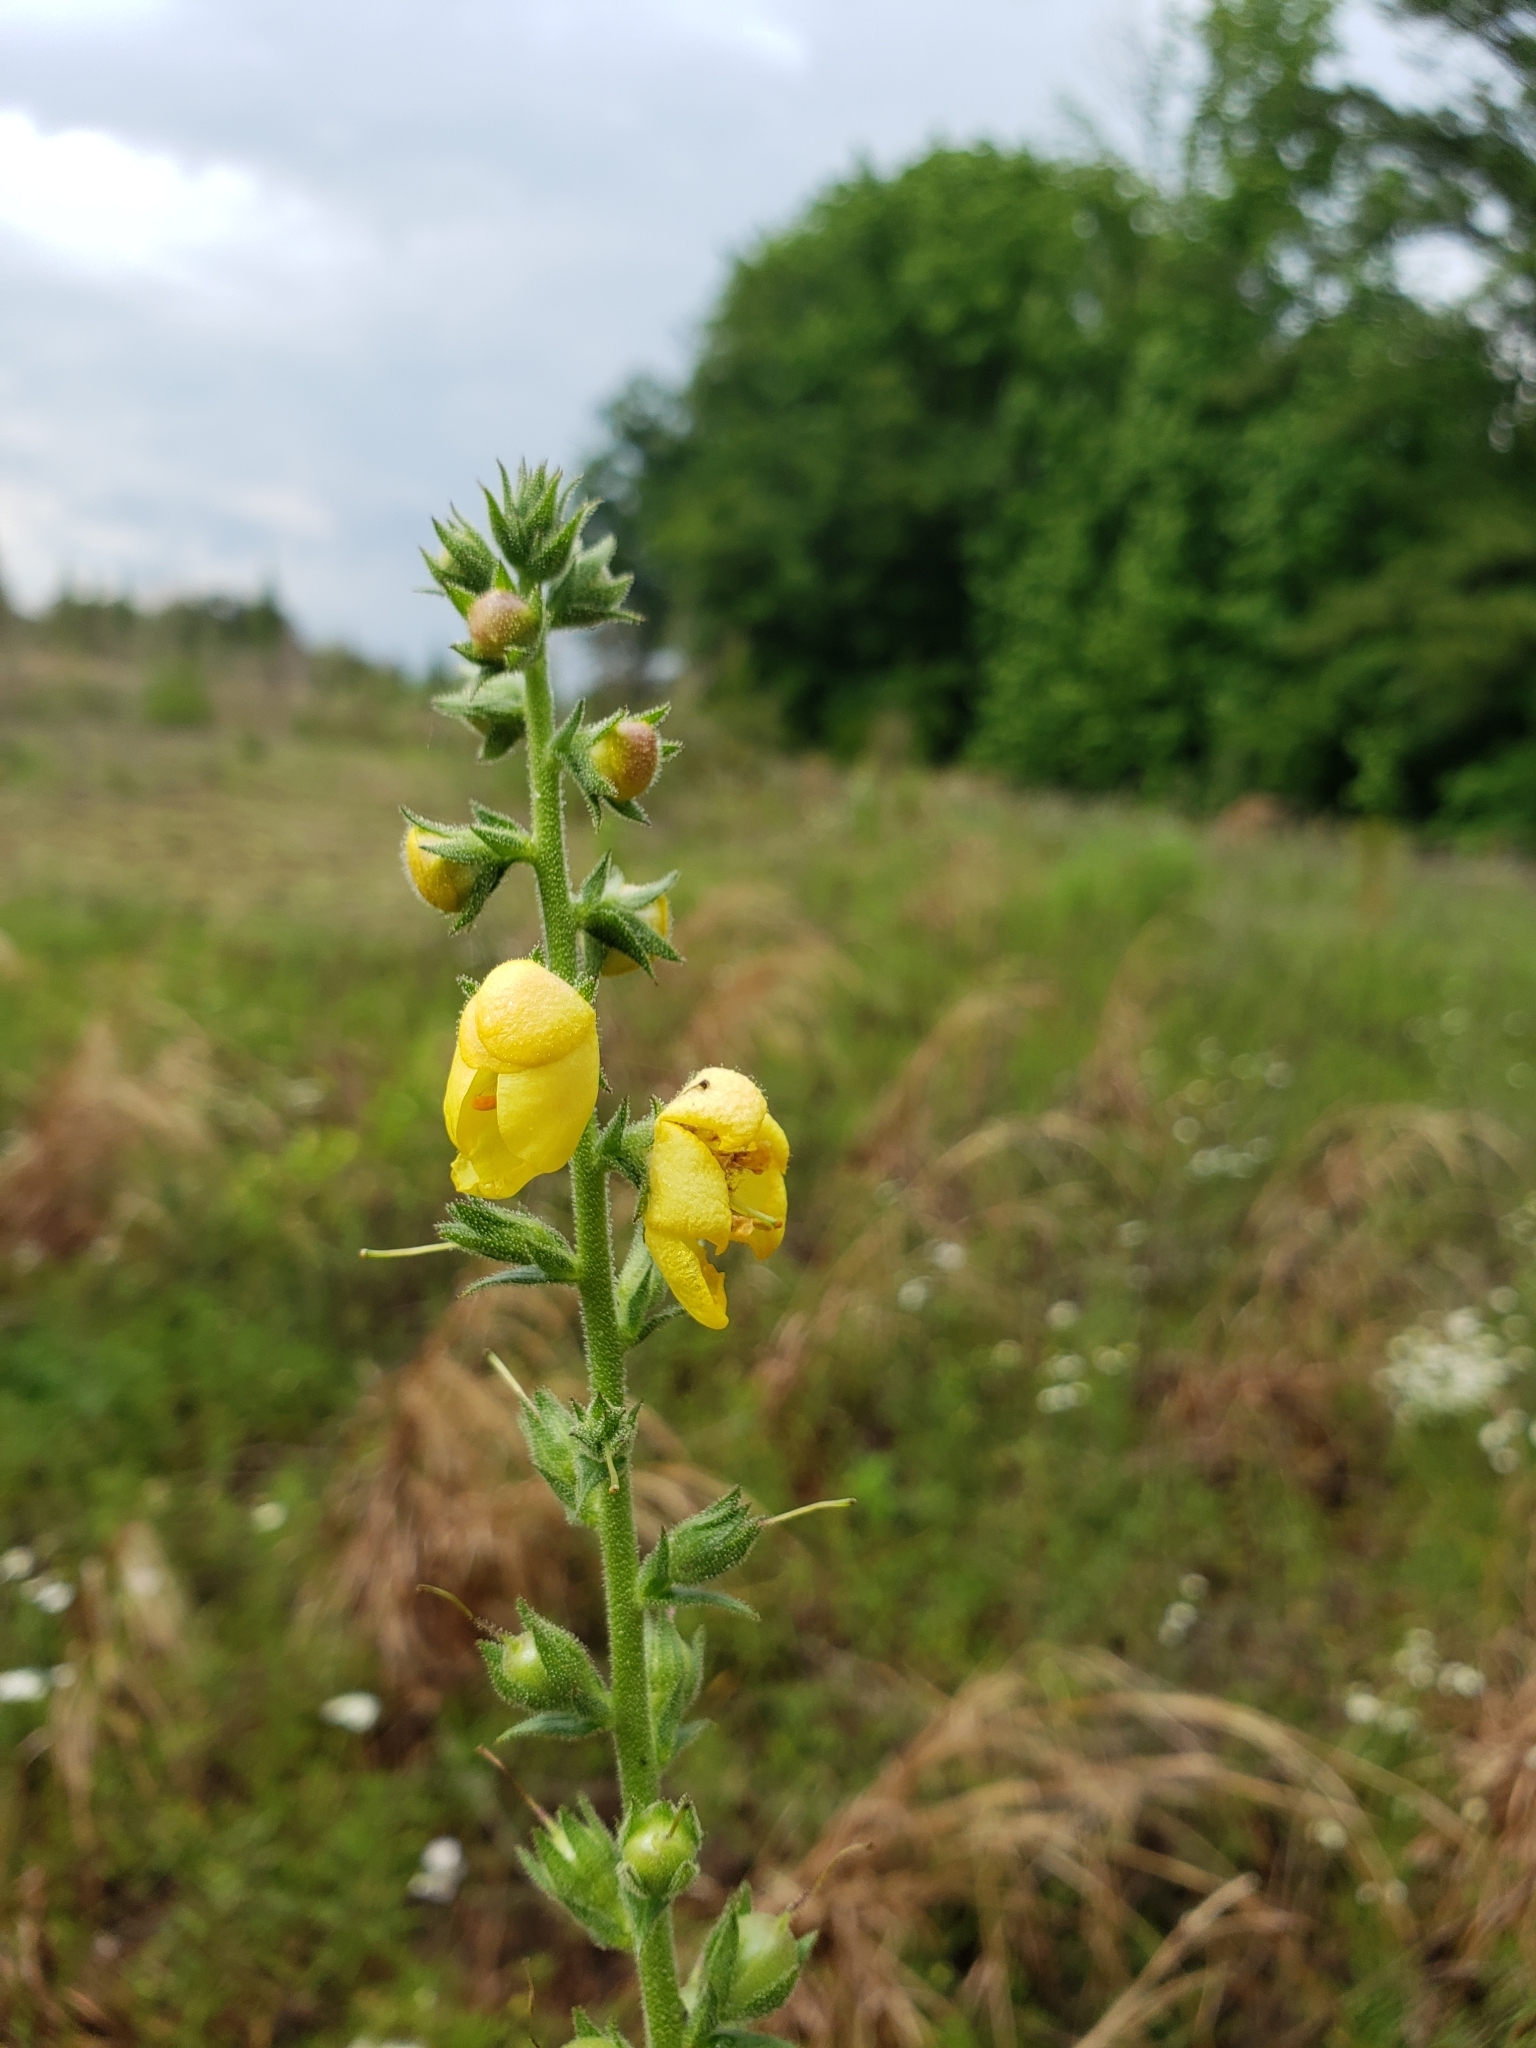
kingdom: Plantae
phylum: Tracheophyta
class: Magnoliopsida
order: Lamiales
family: Scrophulariaceae
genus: Verbascum
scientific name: Verbascum virgatum
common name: Twiggy mullein
